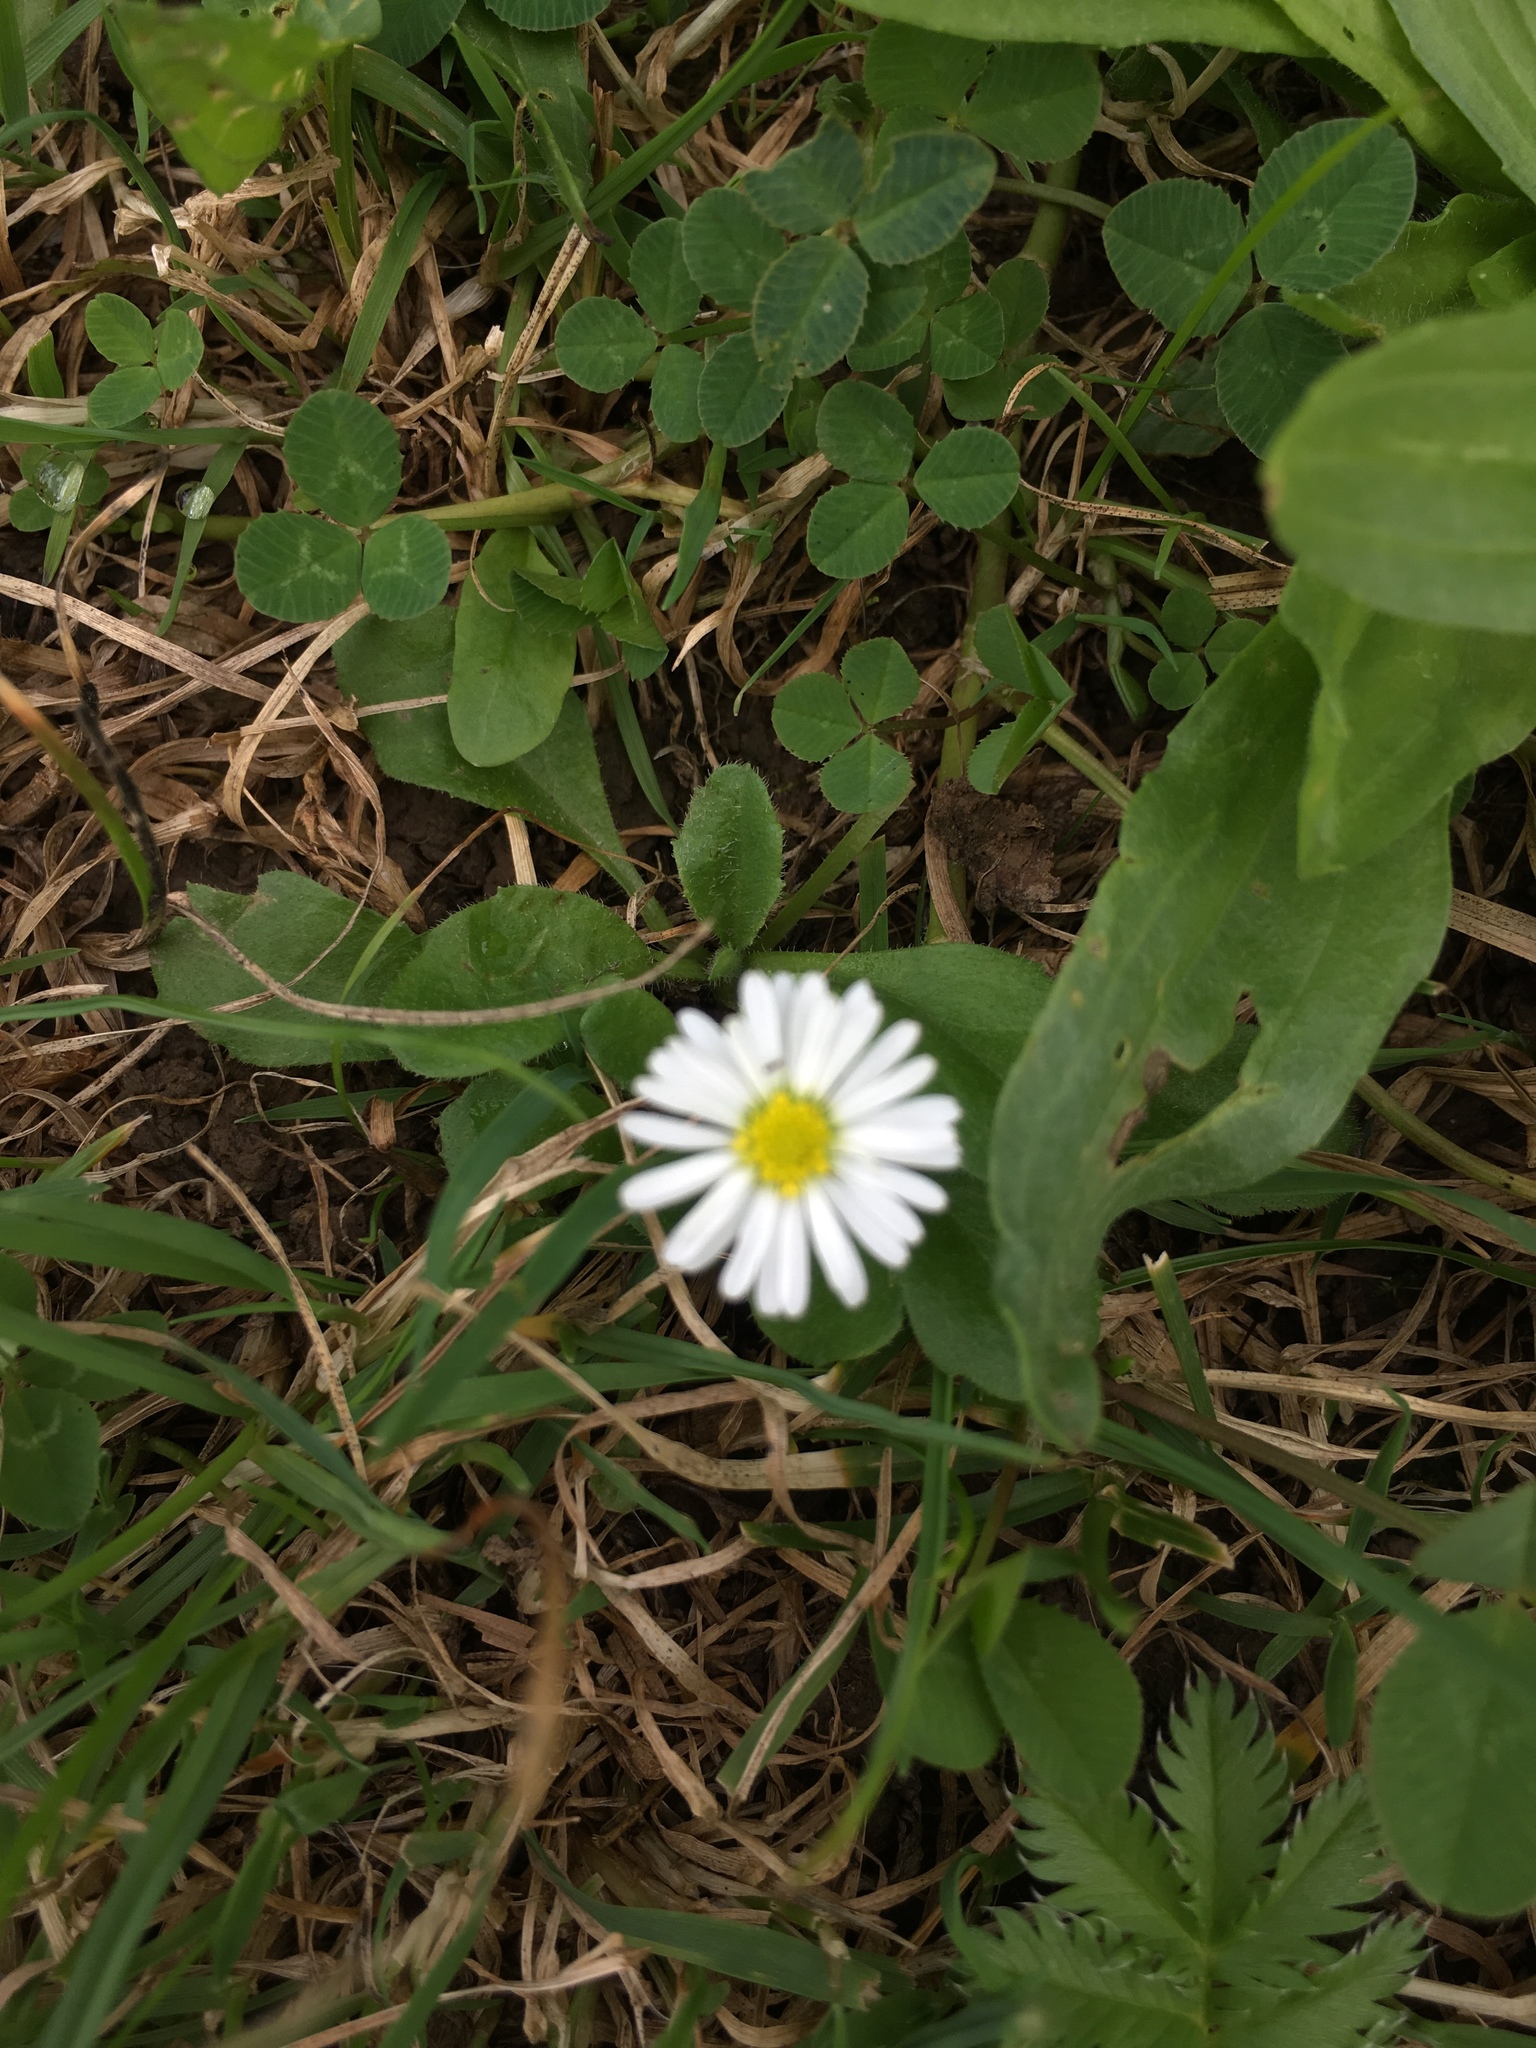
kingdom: Plantae
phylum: Tracheophyta
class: Magnoliopsida
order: Asterales
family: Asteraceae
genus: Bellis
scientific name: Bellis perennis
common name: Lawndaisy
